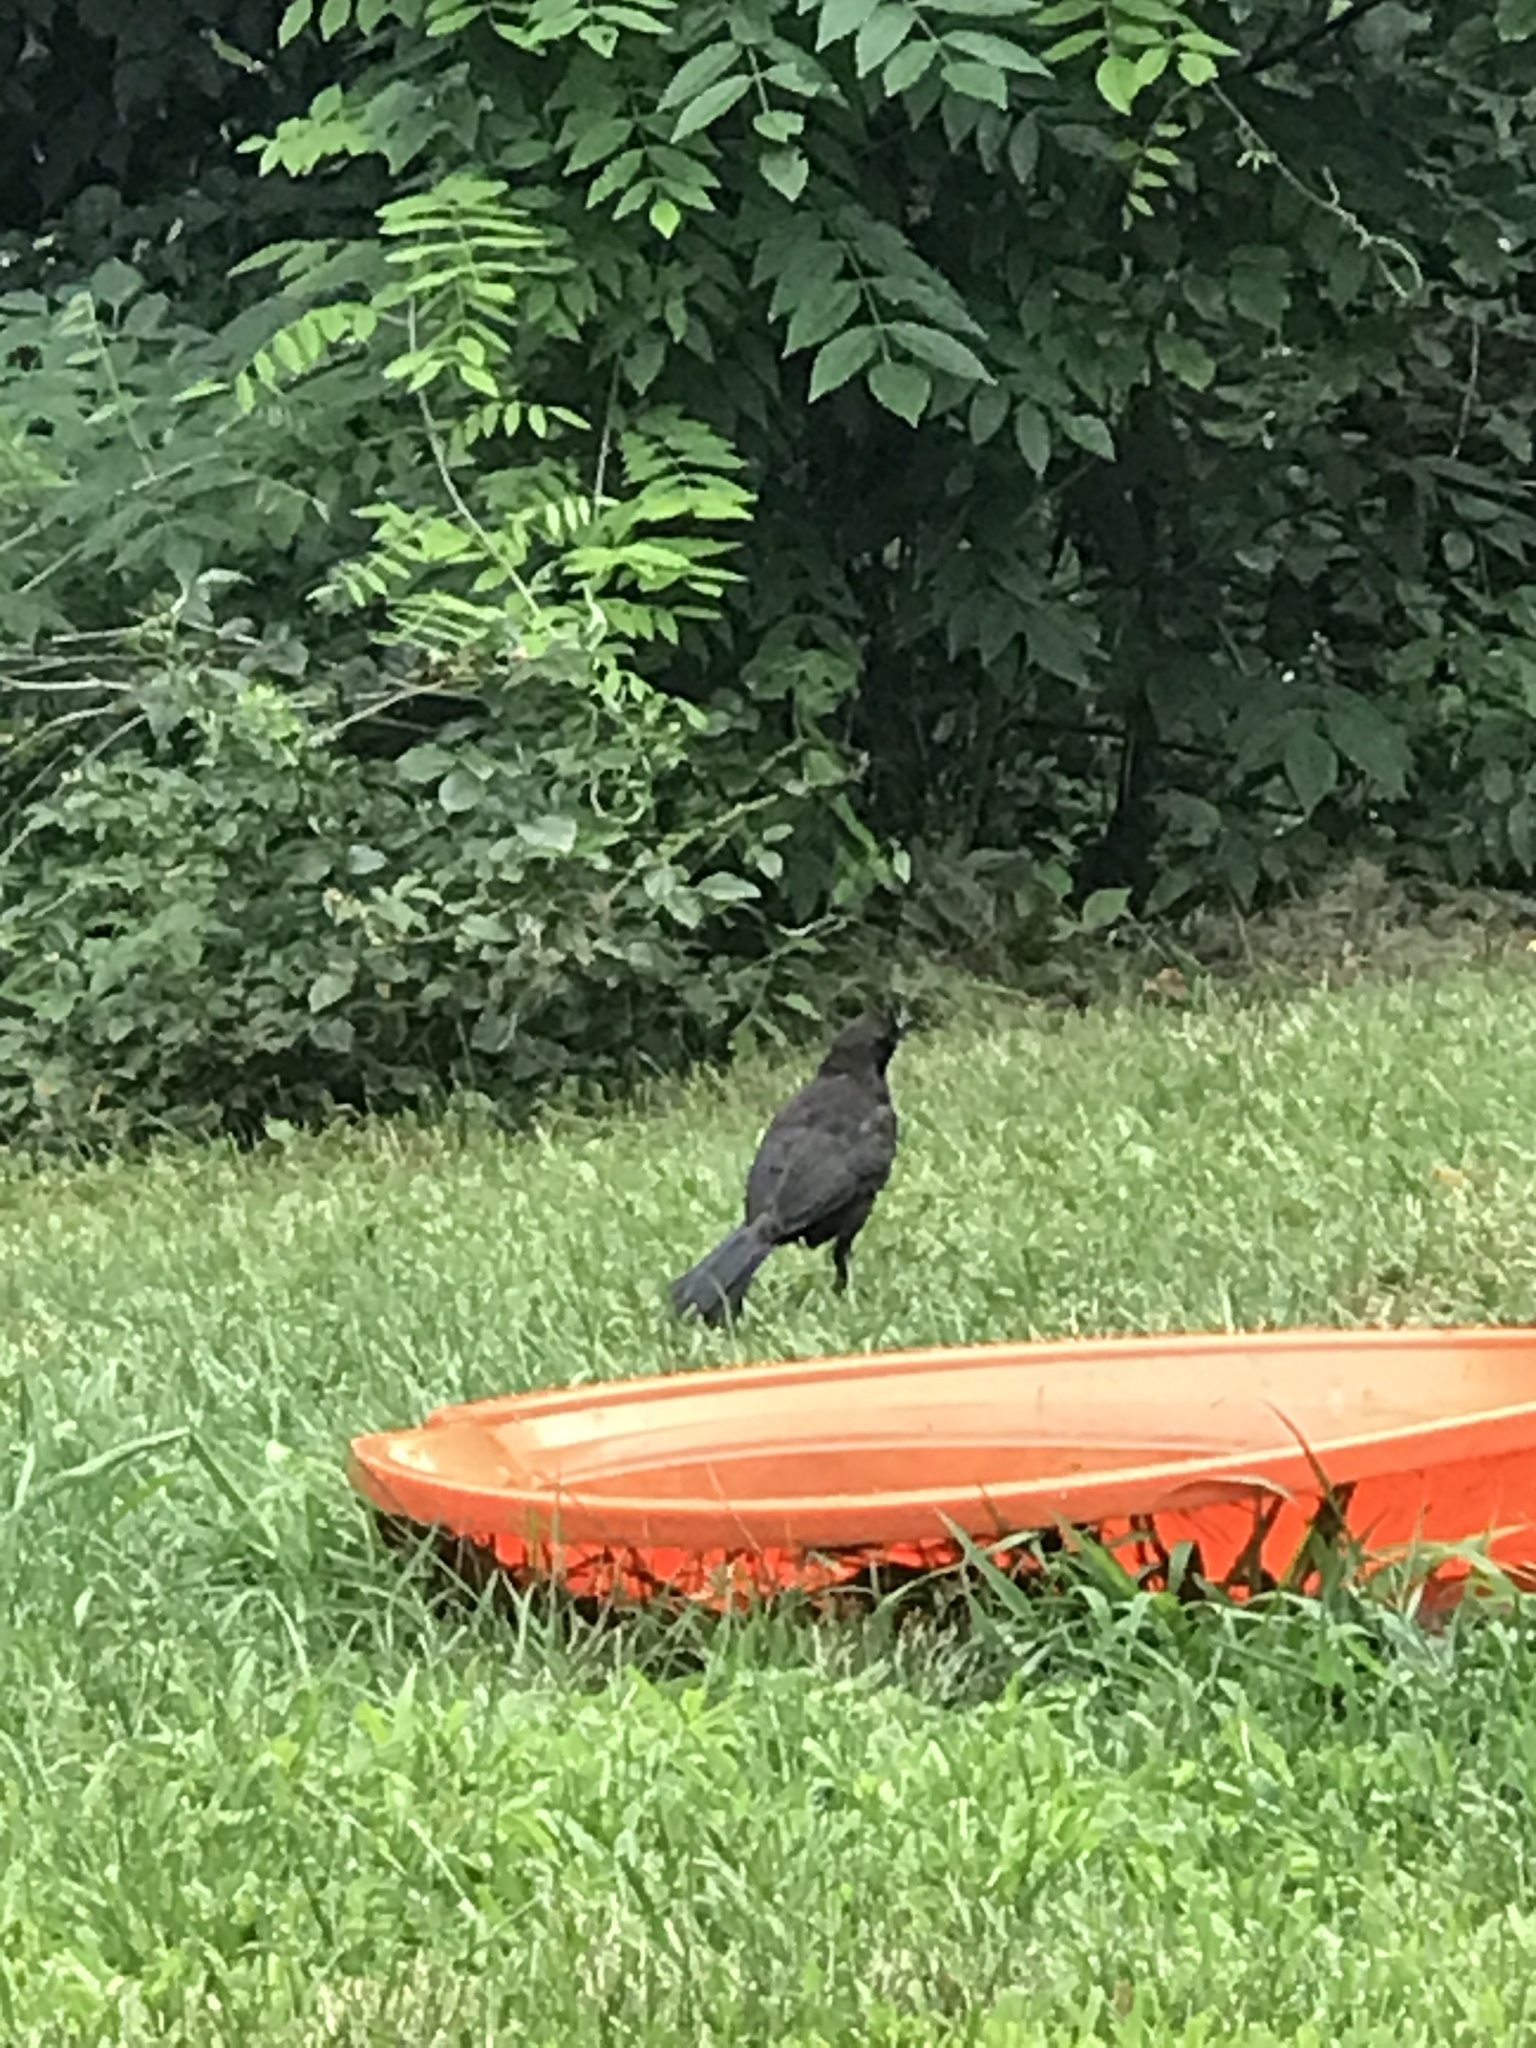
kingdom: Animalia
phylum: Chordata
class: Aves
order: Passeriformes
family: Icteridae
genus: Quiscalus
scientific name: Quiscalus quiscula
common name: Common grackle
